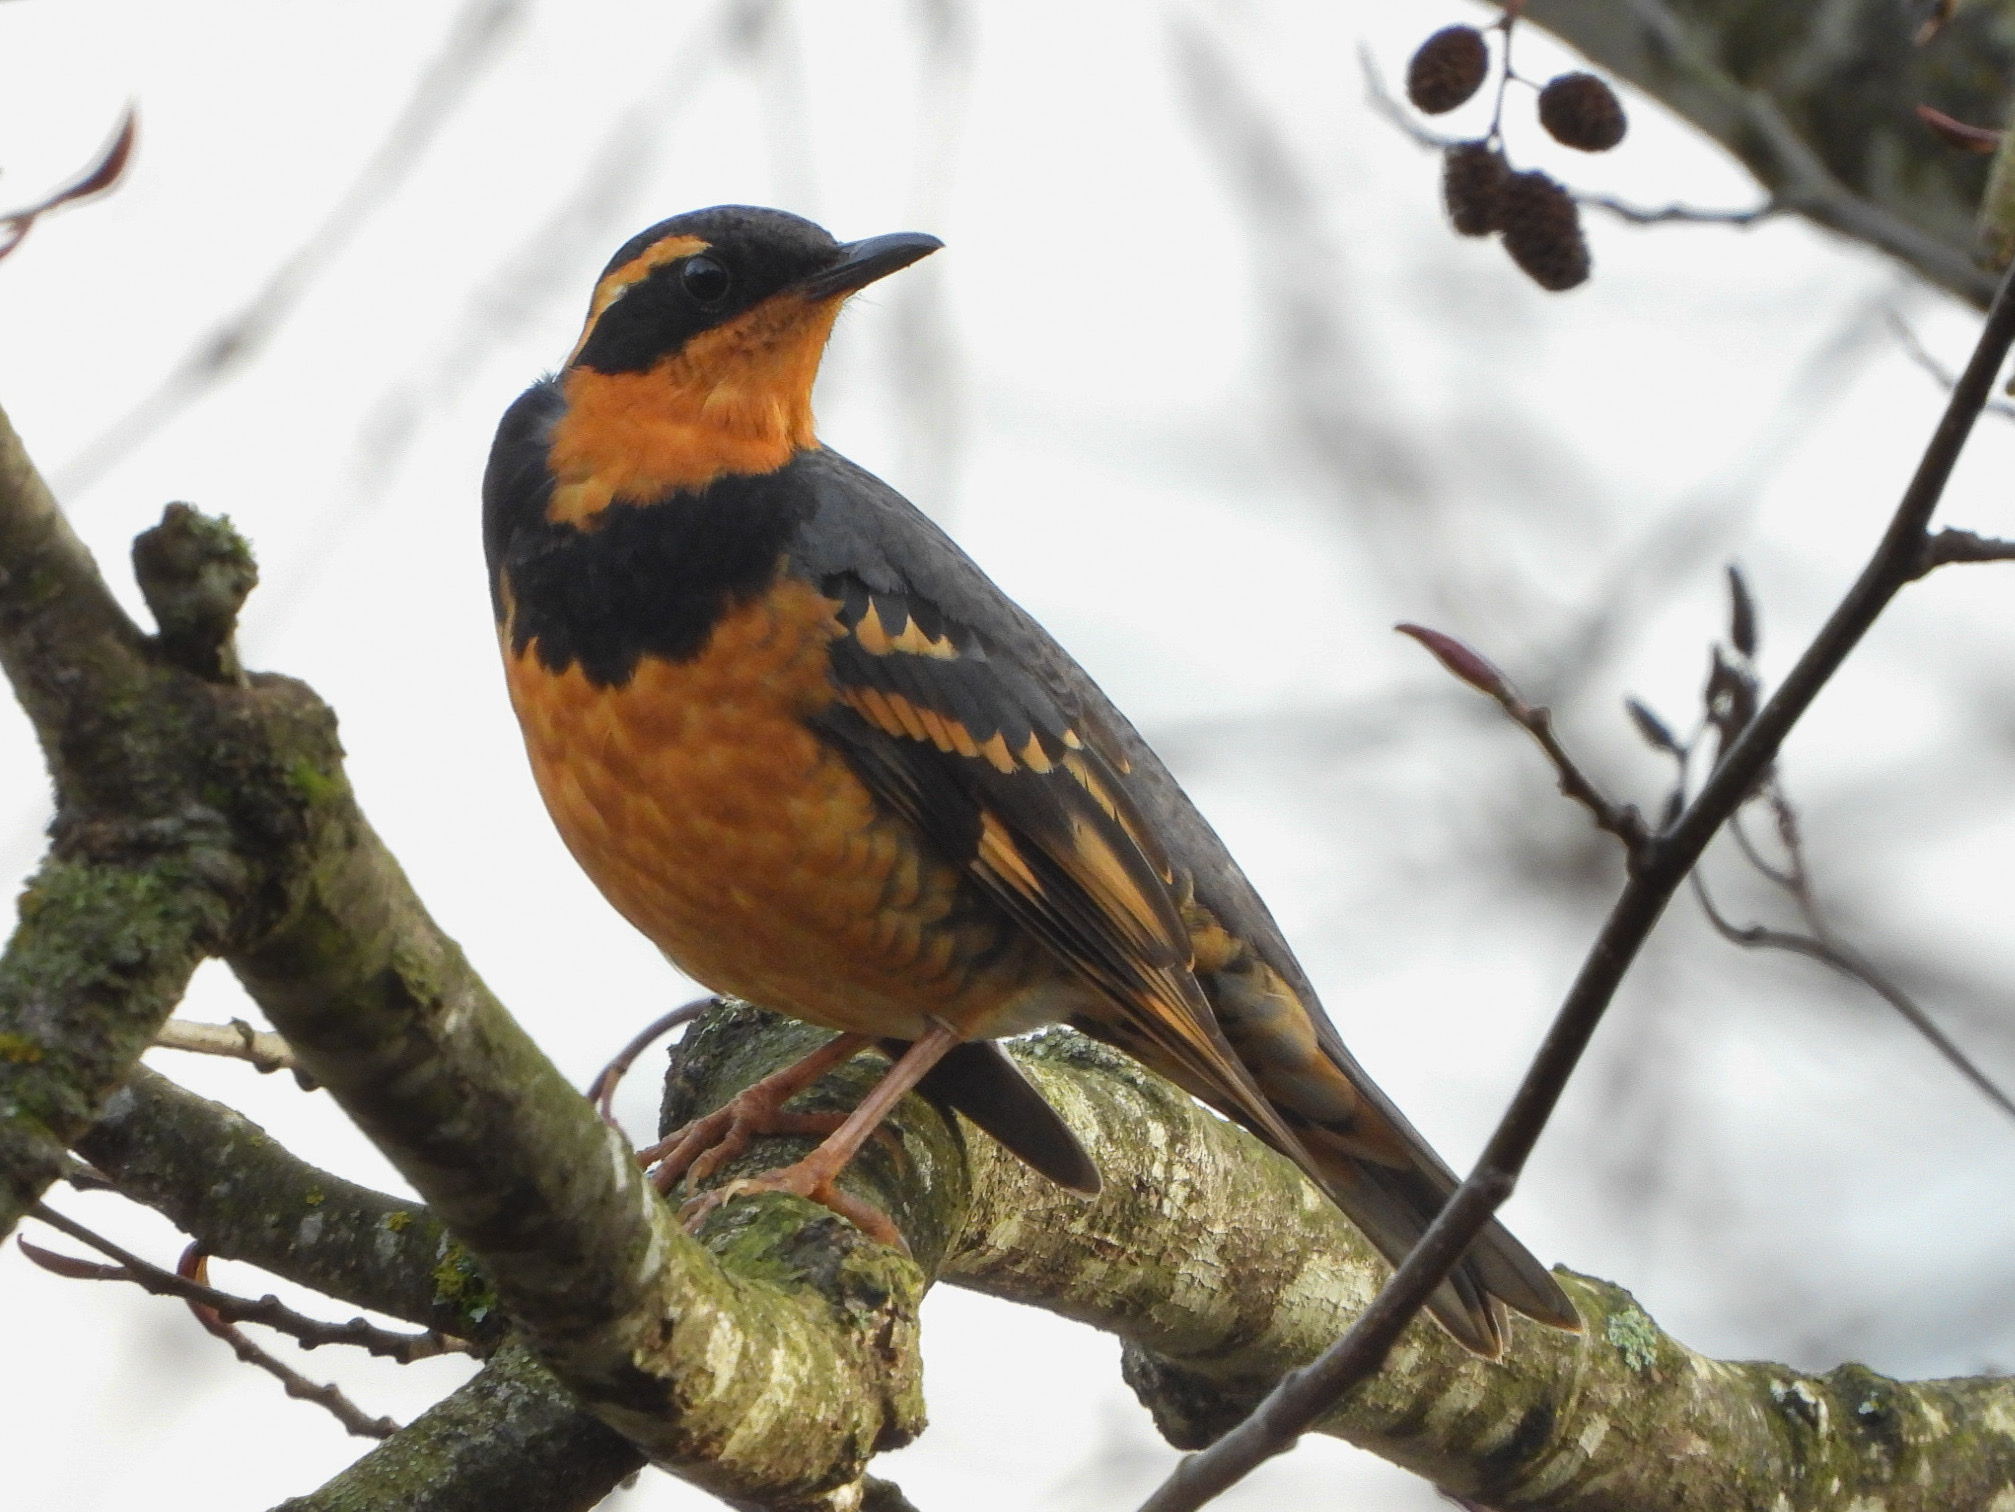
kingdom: Animalia
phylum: Chordata
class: Aves
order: Passeriformes
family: Turdidae
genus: Ixoreus
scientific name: Ixoreus naevius
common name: Varied thrush
